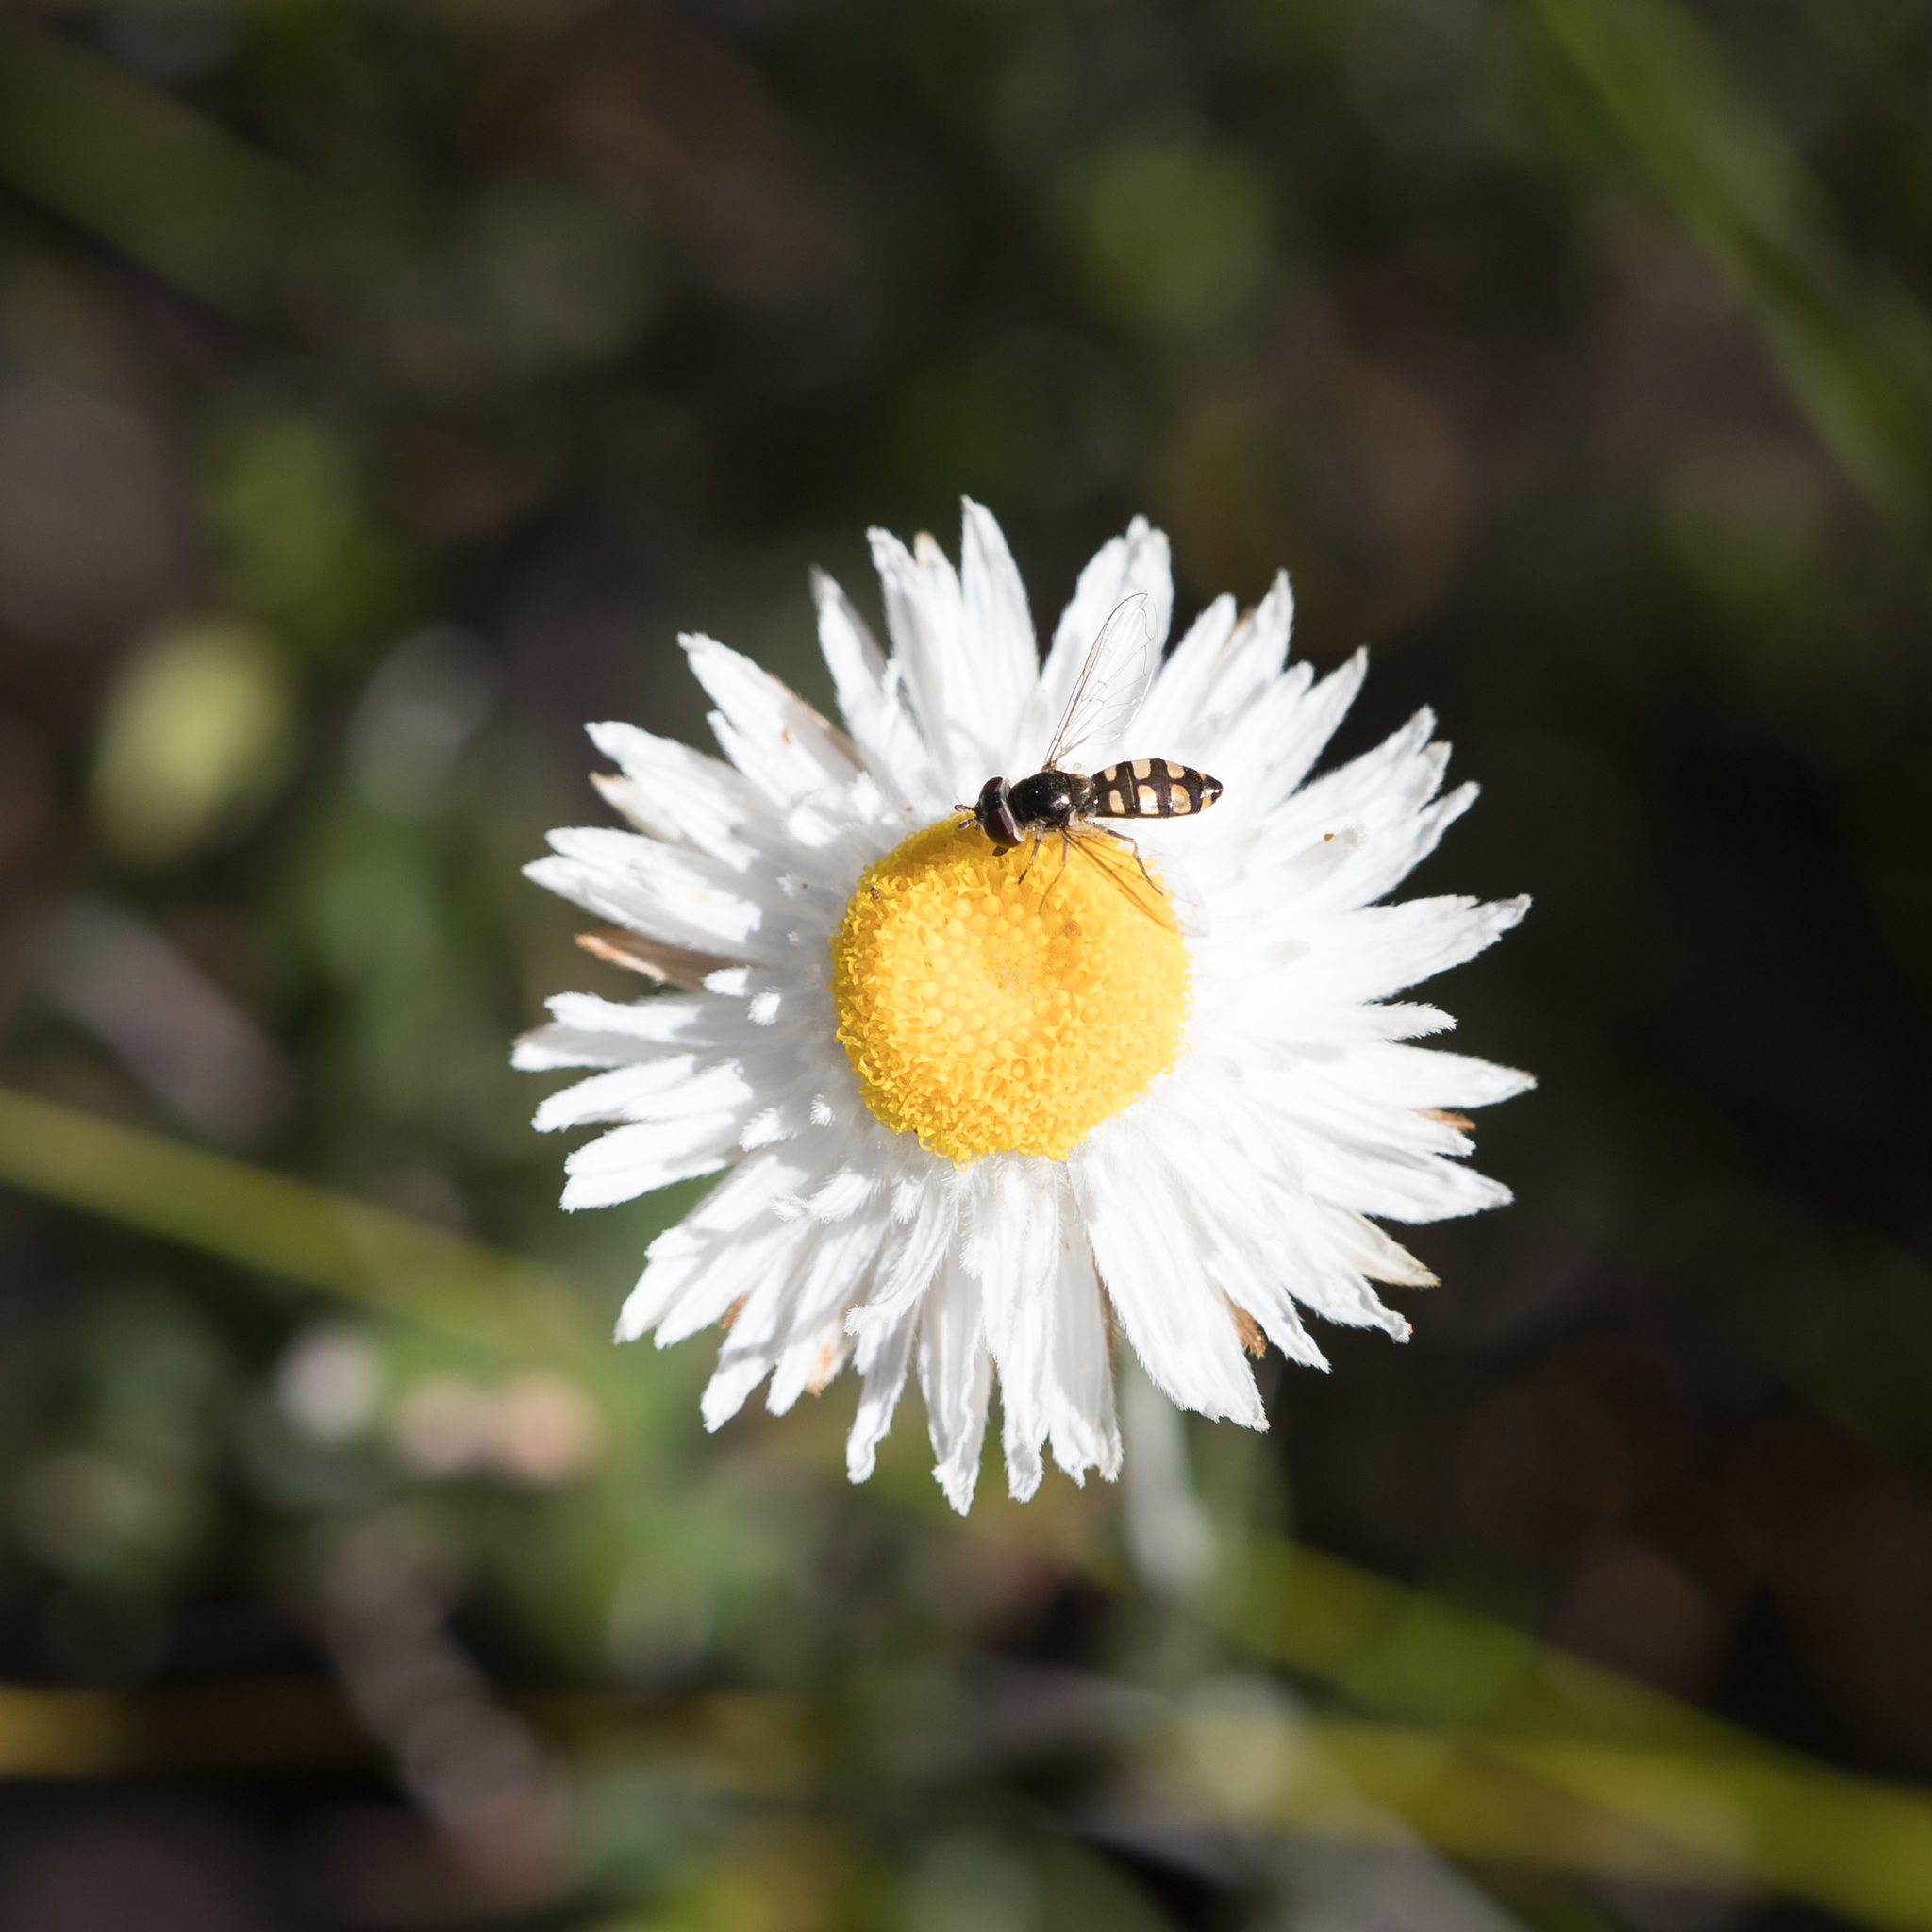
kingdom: Plantae
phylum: Tracheophyta
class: Magnoliopsida
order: Asterales
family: Asteraceae
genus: Chrysocephalum
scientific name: Chrysocephalum baxteri
